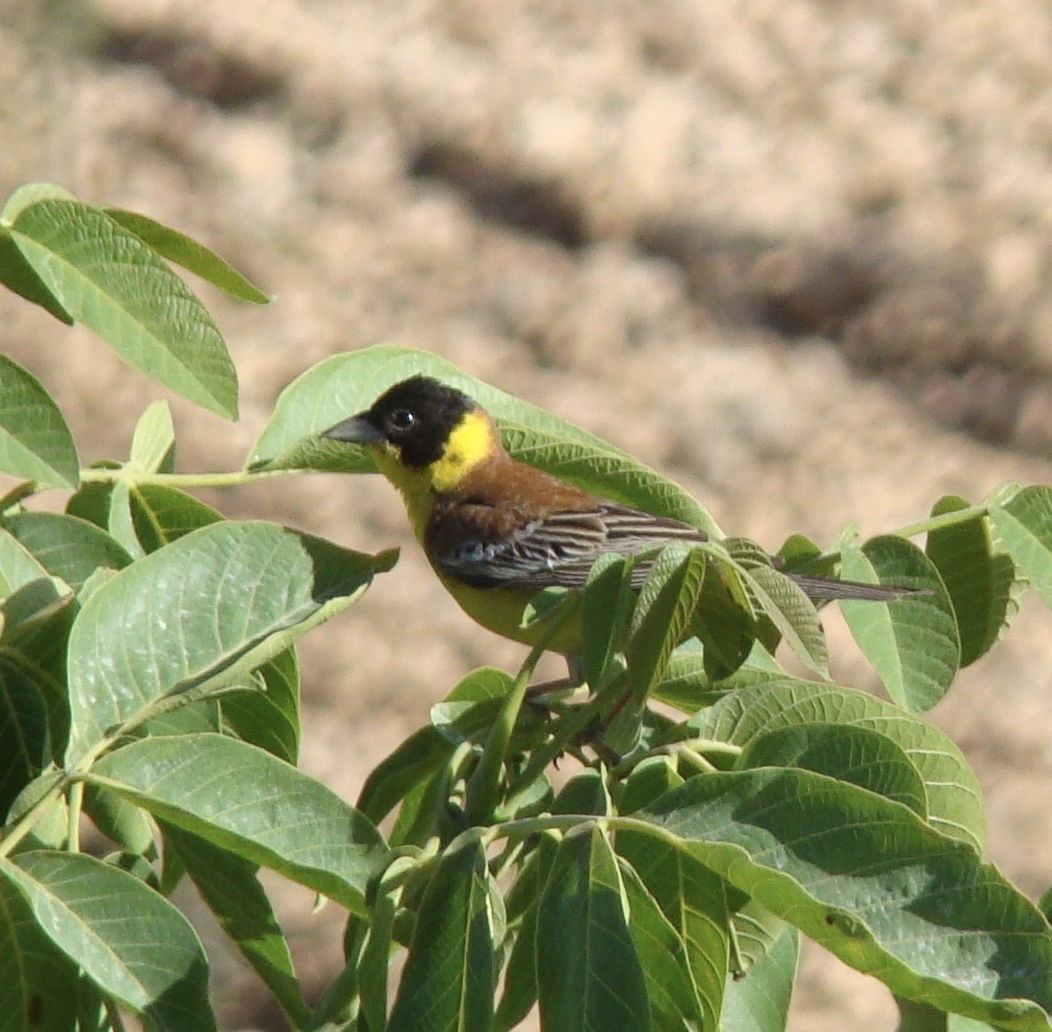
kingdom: Animalia
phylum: Chordata
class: Aves
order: Passeriformes
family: Emberizidae
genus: Emberiza
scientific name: Emberiza melanocephala
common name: Black-headed bunting
